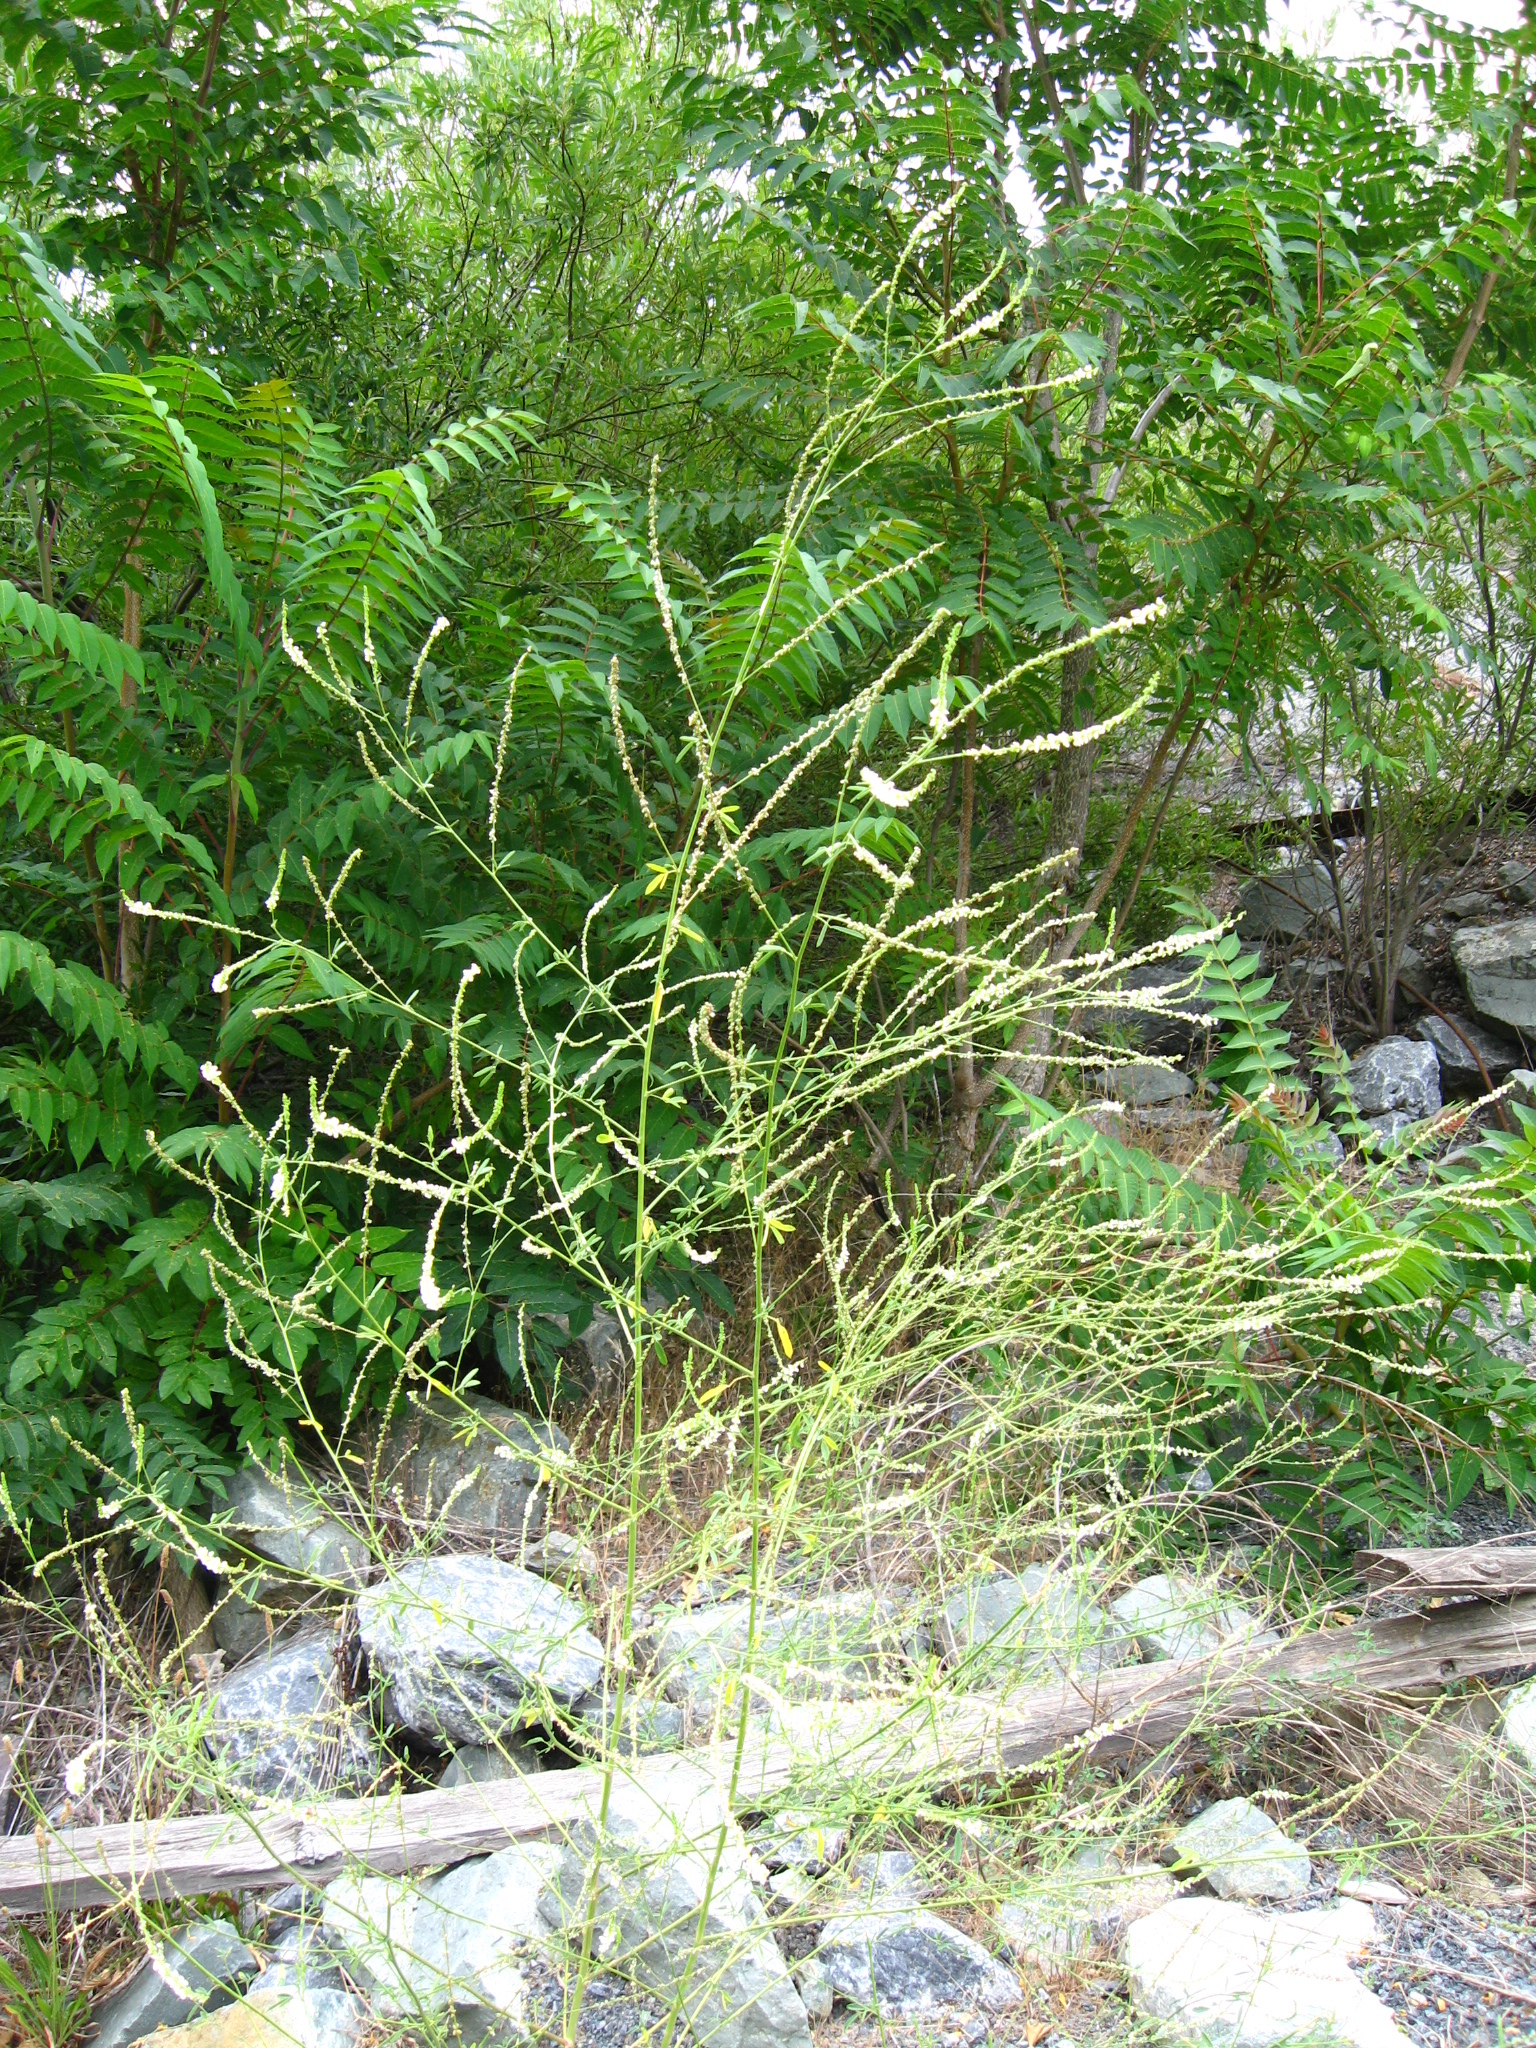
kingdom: Plantae
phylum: Tracheophyta
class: Magnoliopsida
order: Fabales
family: Fabaceae
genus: Melilotus
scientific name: Melilotus albus
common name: White melilot
